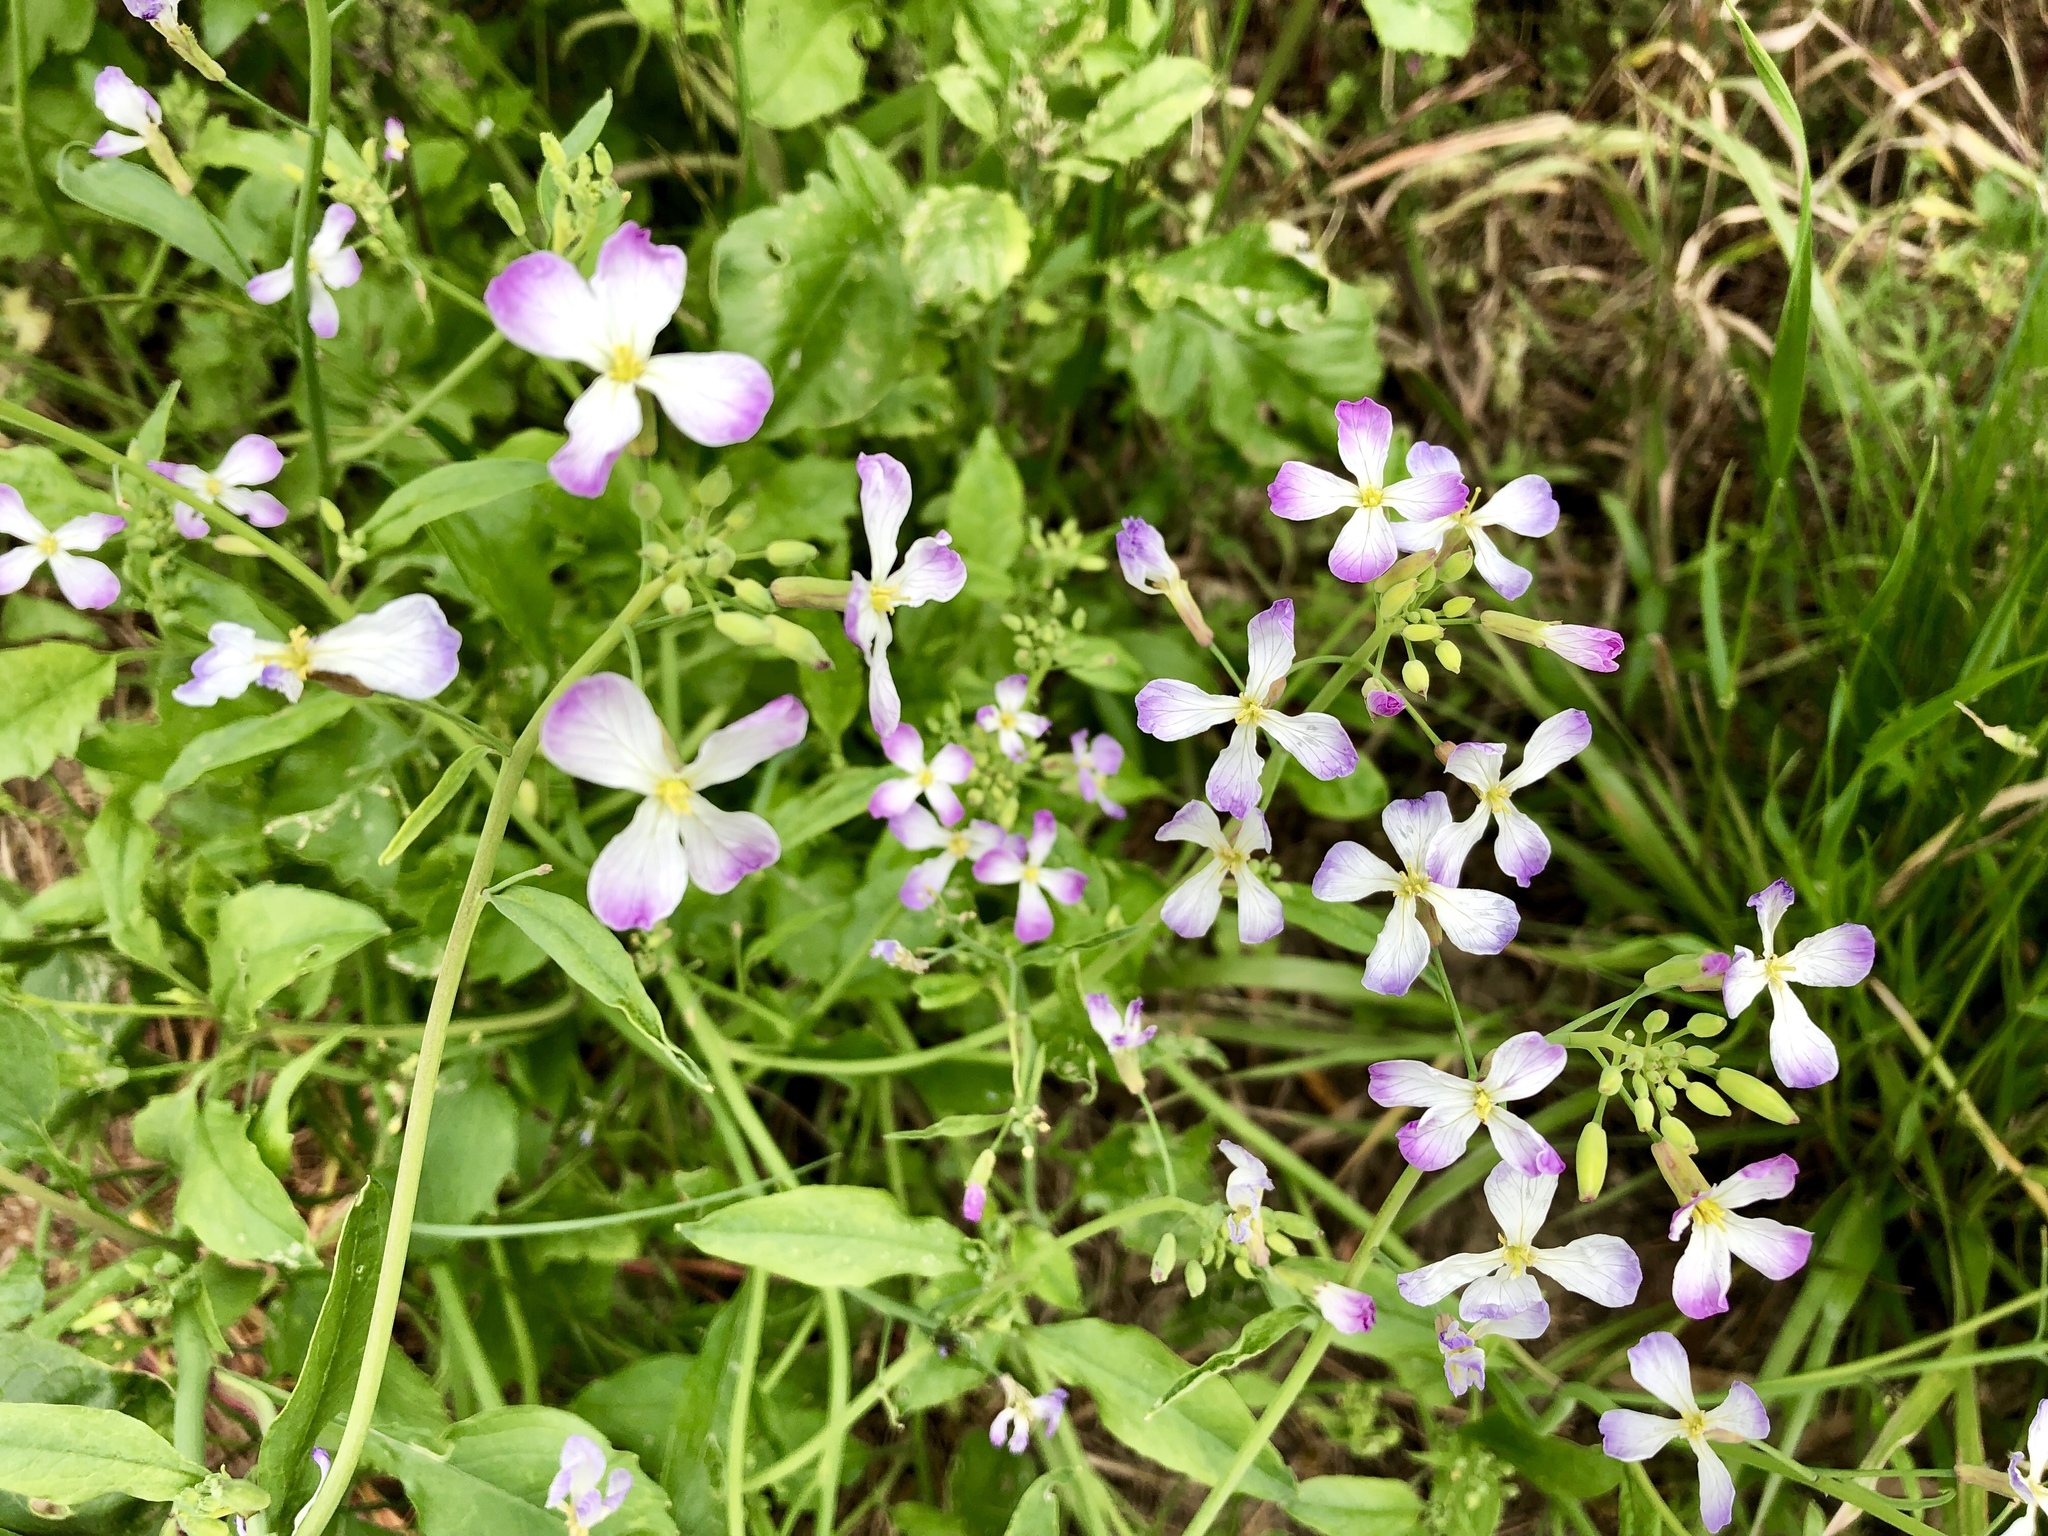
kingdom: Plantae
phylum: Tracheophyta
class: Magnoliopsida
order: Brassicales
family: Brassicaceae
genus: Raphanus
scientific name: Raphanus sativus
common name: Cultivated radish
